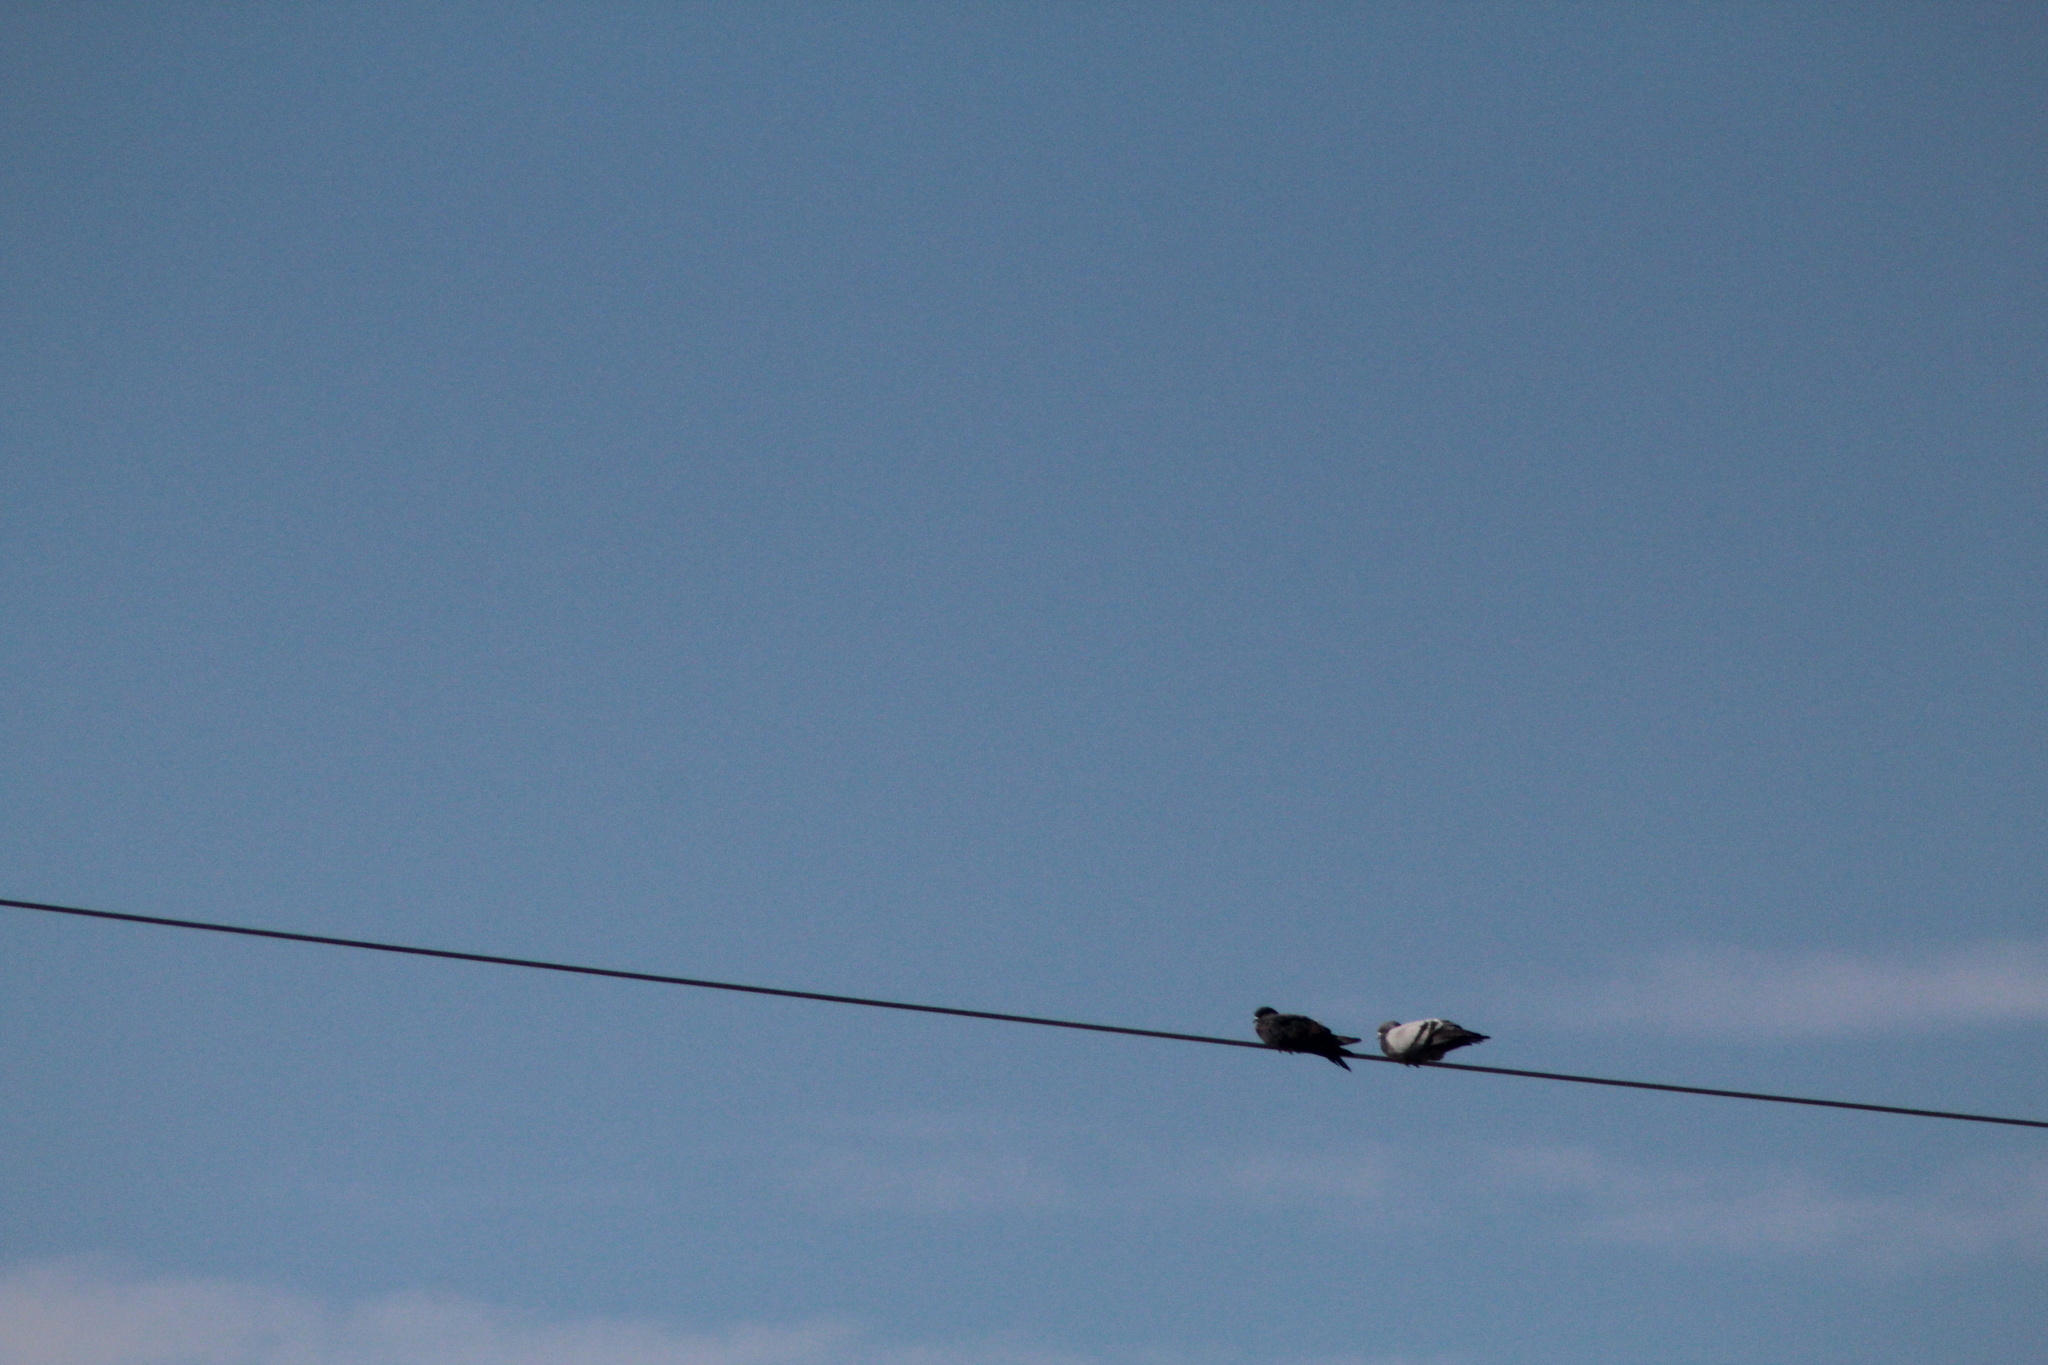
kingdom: Animalia
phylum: Chordata
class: Aves
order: Columbiformes
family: Columbidae
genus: Columba
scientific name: Columba livia
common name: Rock pigeon
